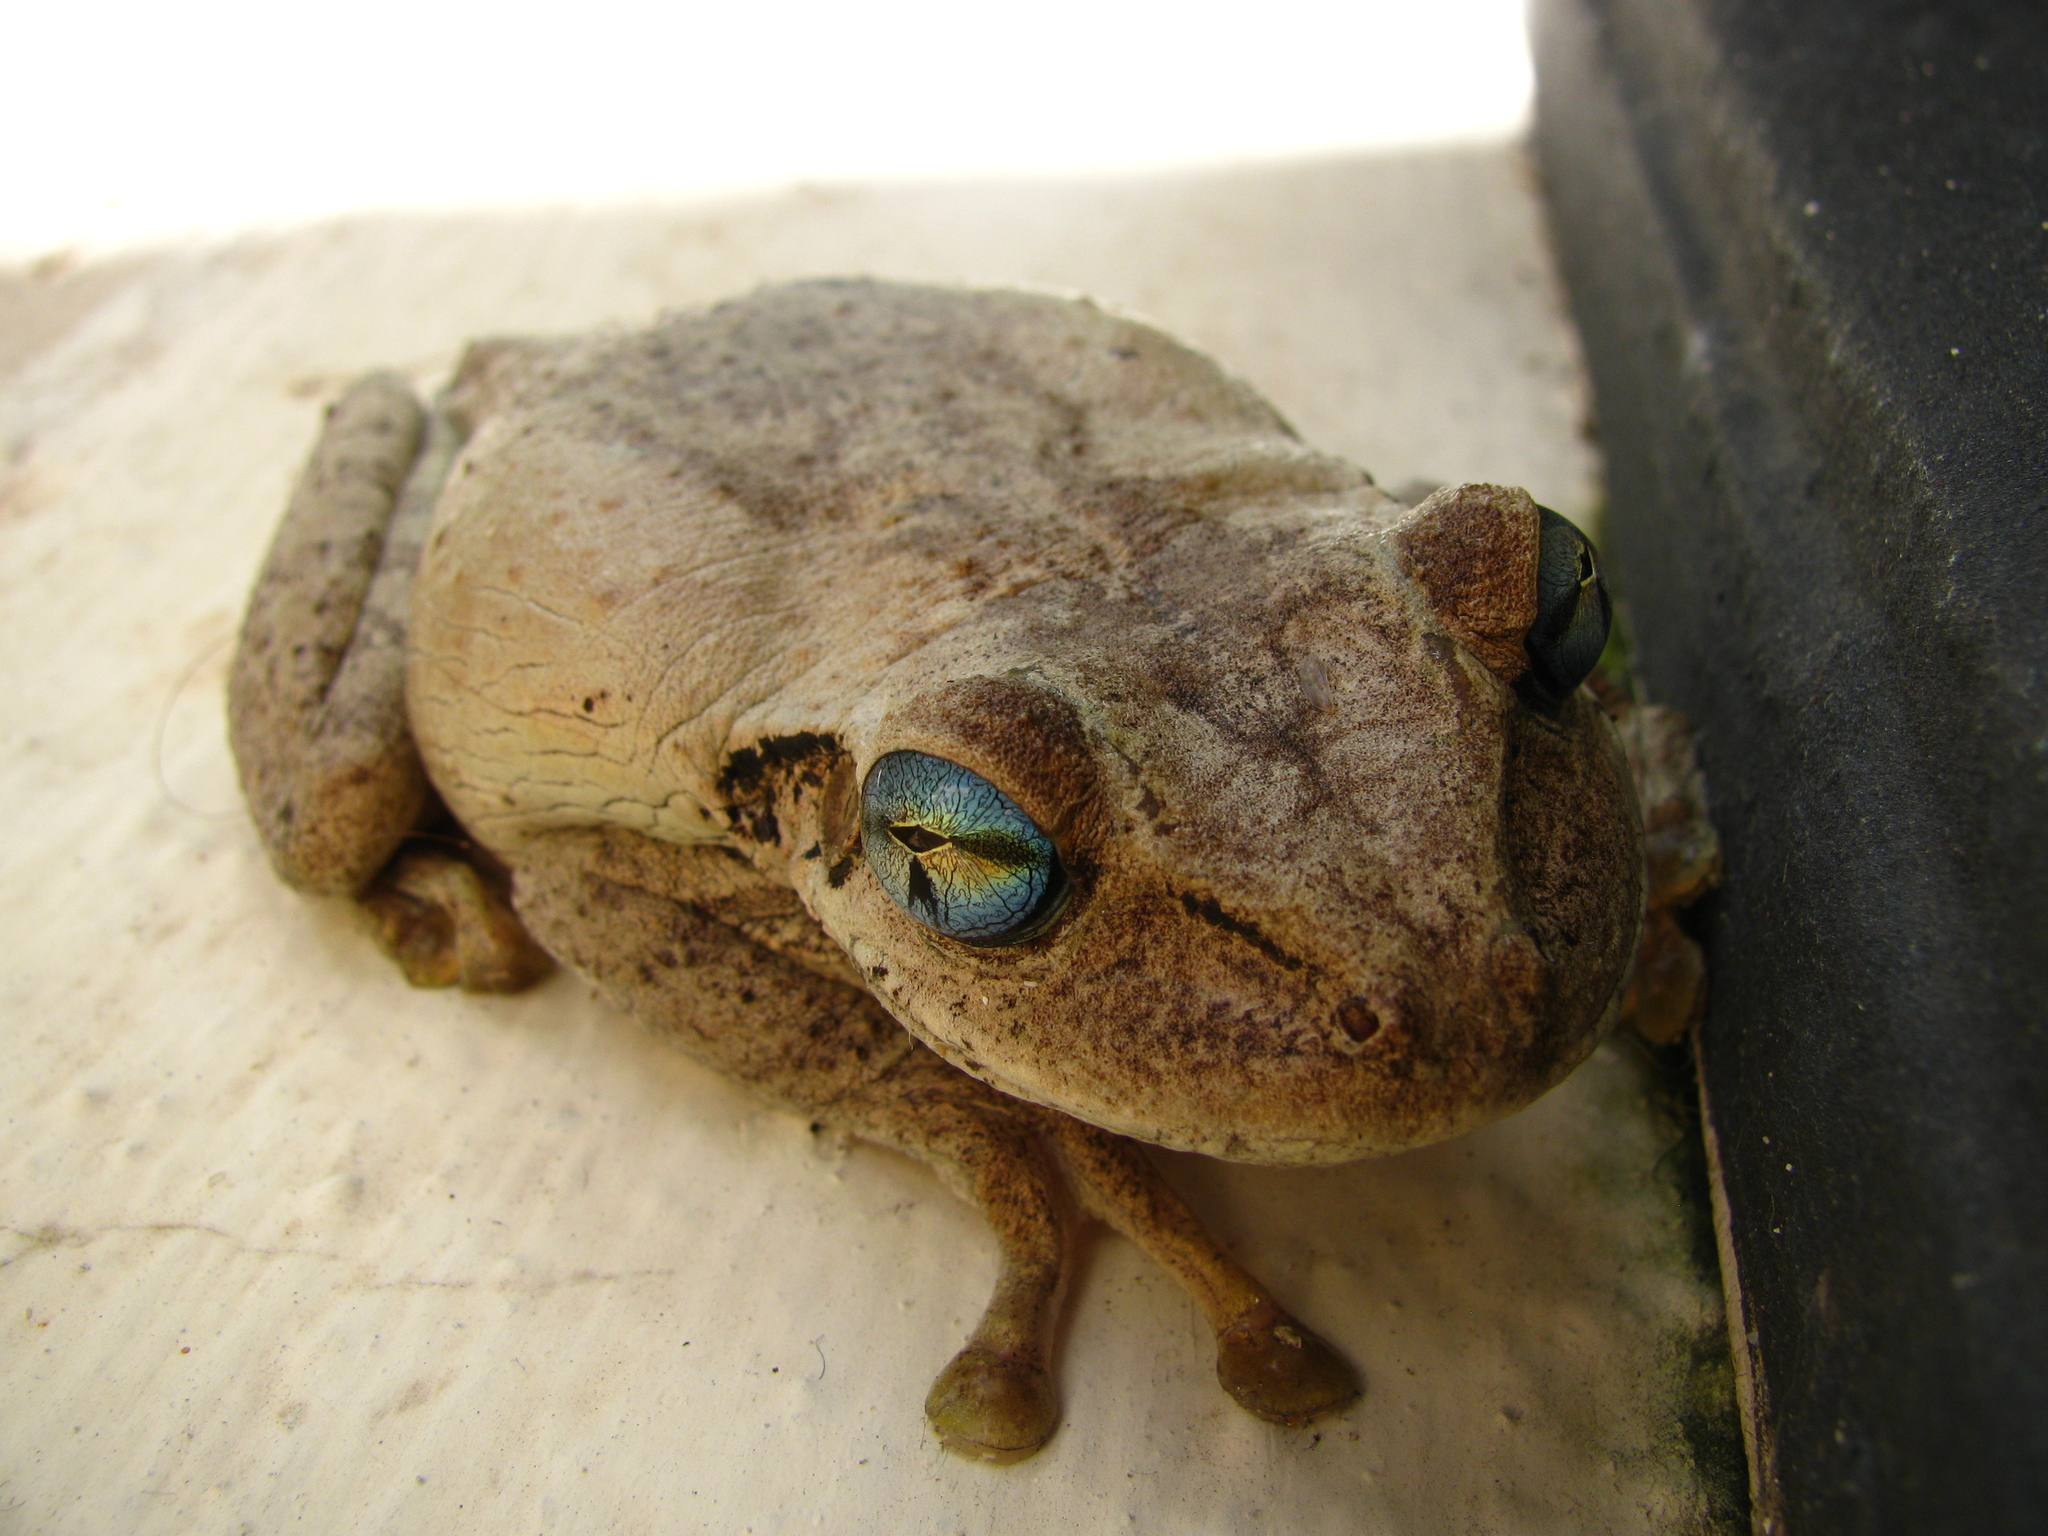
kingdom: Animalia
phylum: Chordata
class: Amphibia
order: Anura
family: Hylidae
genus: Osteopilus
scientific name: Osteopilus dominicensis
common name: Hispaniolan common treefrog
